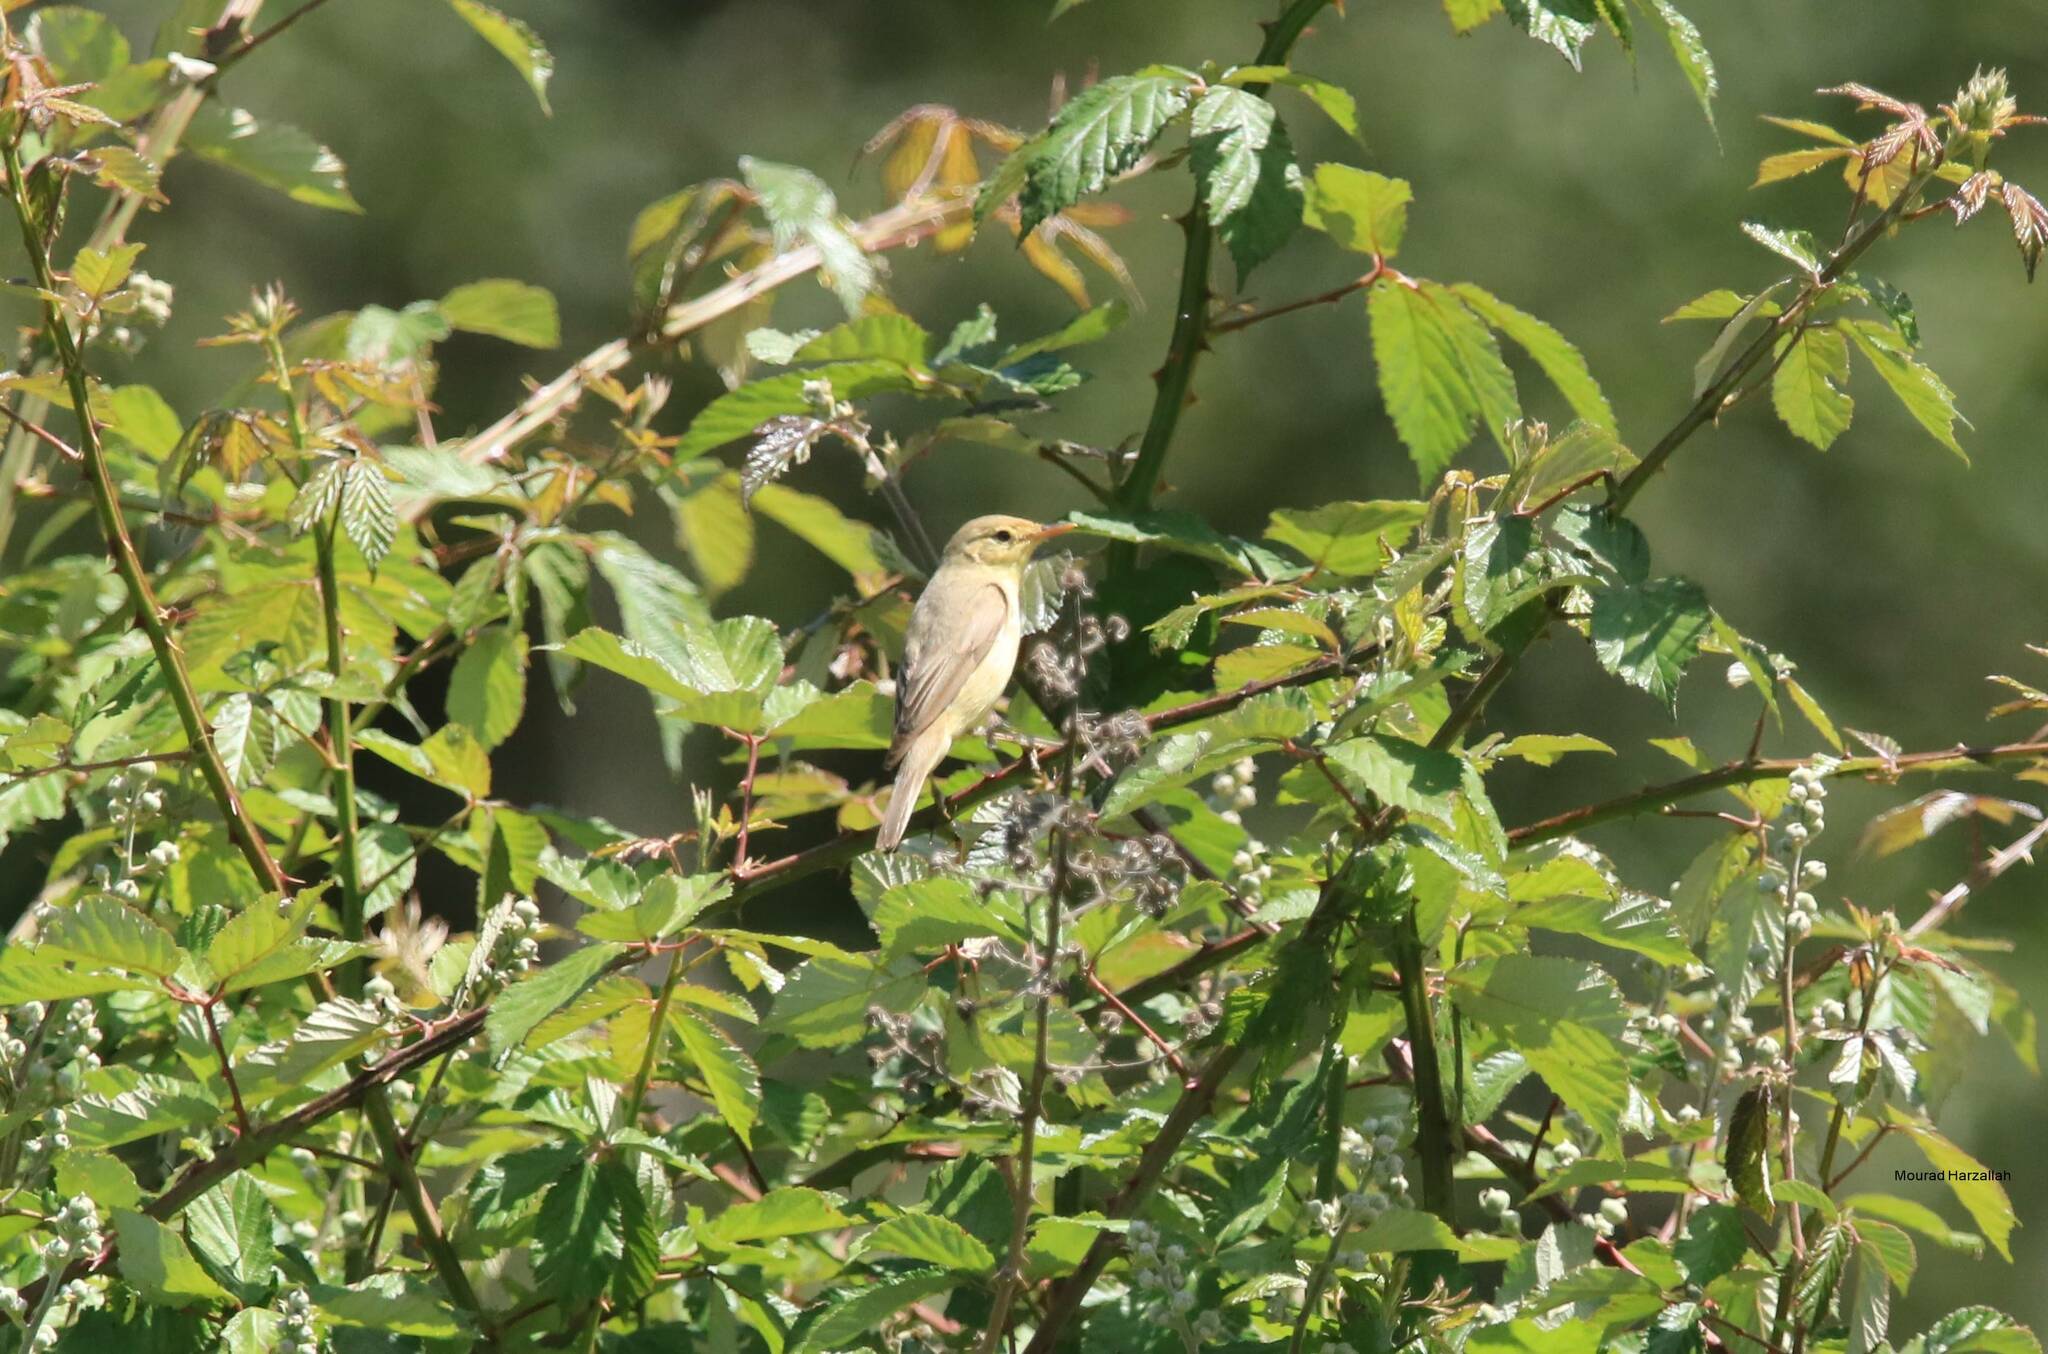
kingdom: Animalia
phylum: Chordata
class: Aves
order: Passeriformes
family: Acrocephalidae
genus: Hippolais
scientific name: Hippolais polyglotta
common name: Melodious warbler
